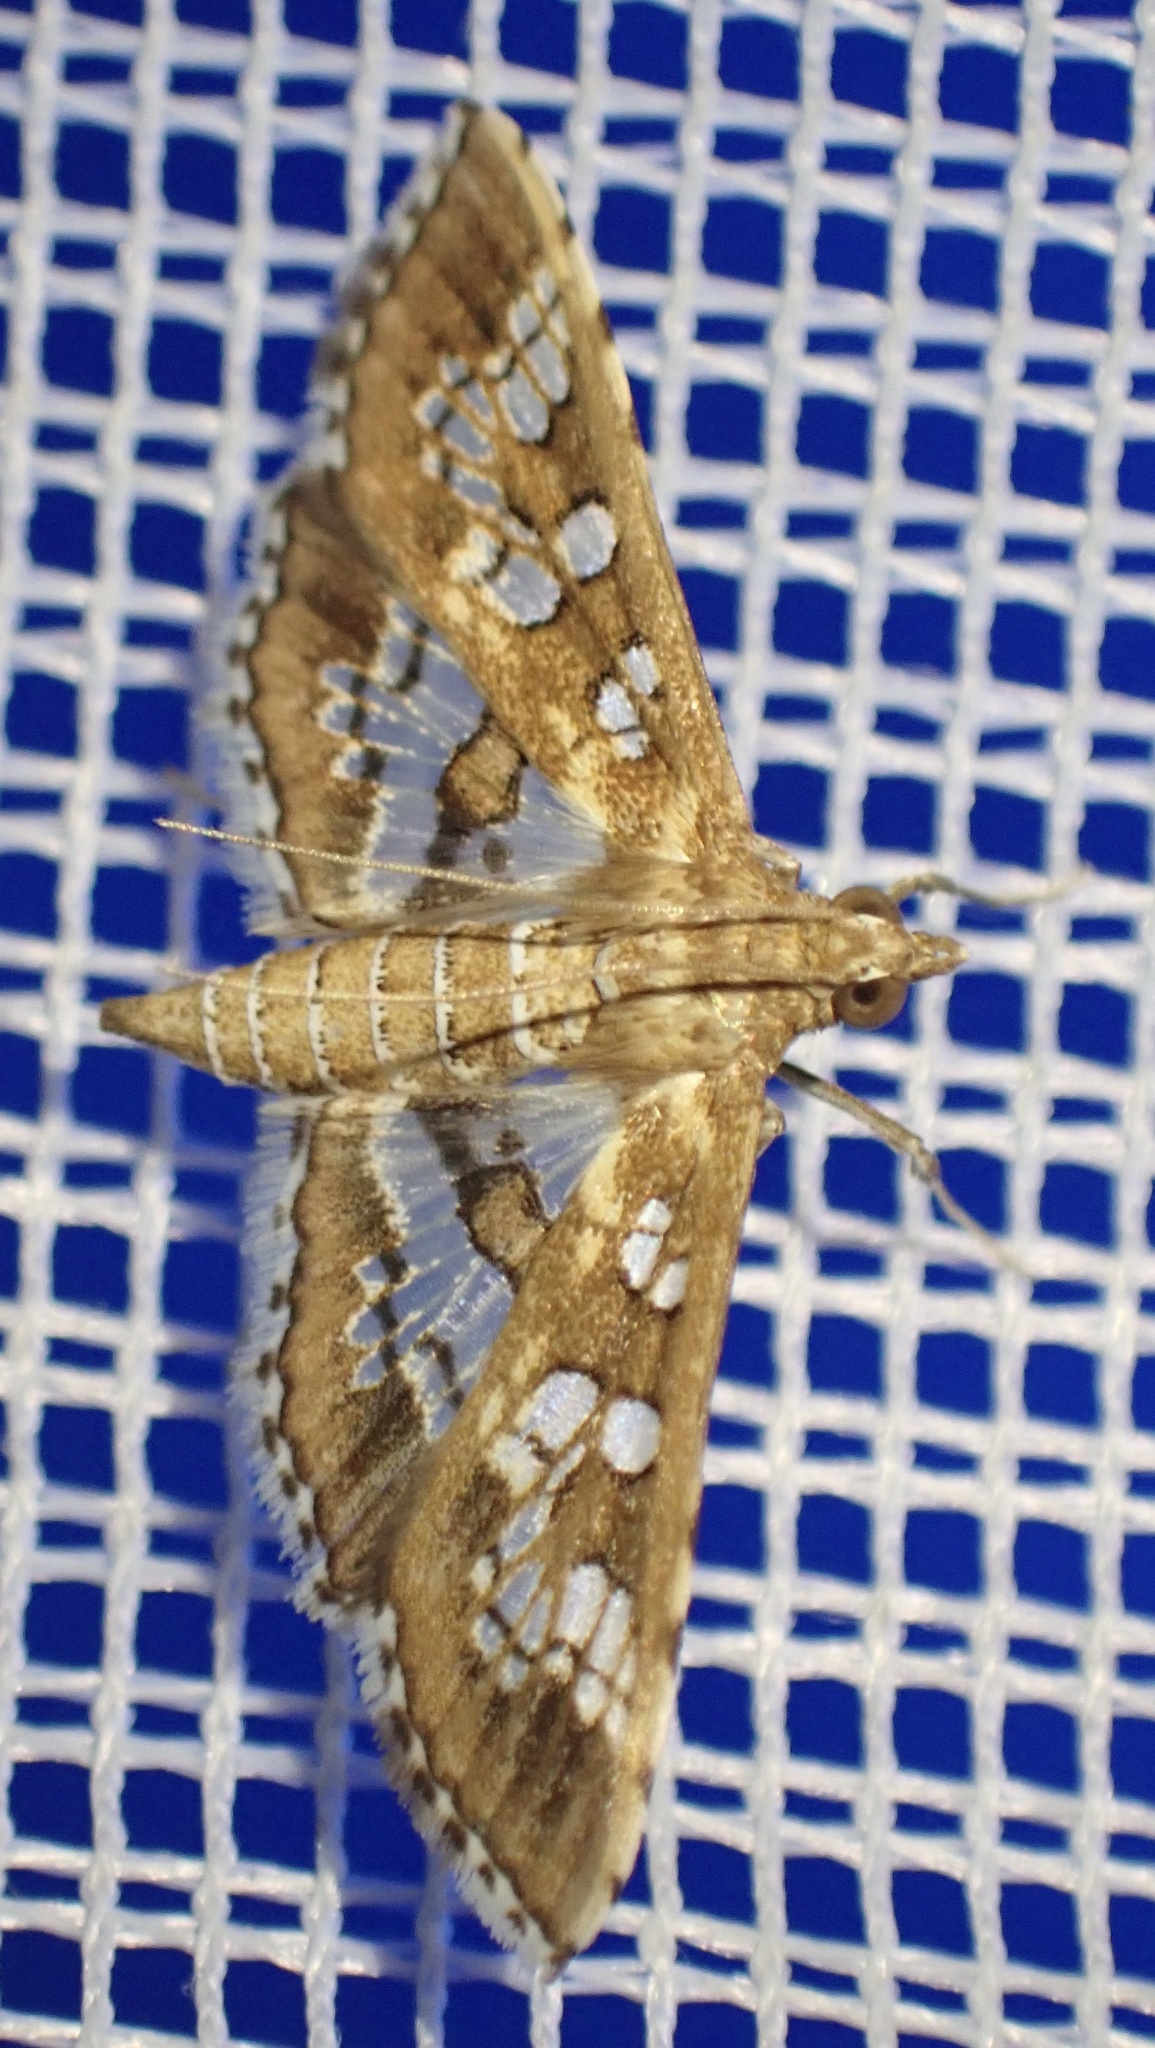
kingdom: Animalia
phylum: Arthropoda
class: Insecta
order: Lepidoptera
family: Crambidae
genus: Sameodes
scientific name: Sameodes cancellalis
